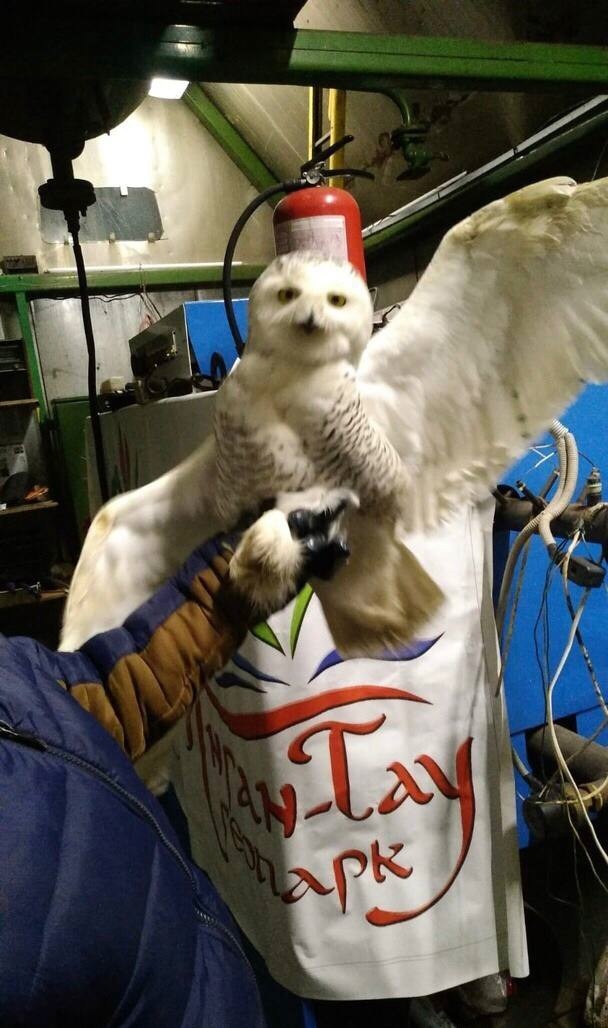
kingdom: Animalia
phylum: Chordata
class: Aves
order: Strigiformes
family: Strigidae
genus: Bubo
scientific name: Bubo scandiacus
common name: Snowy owl
